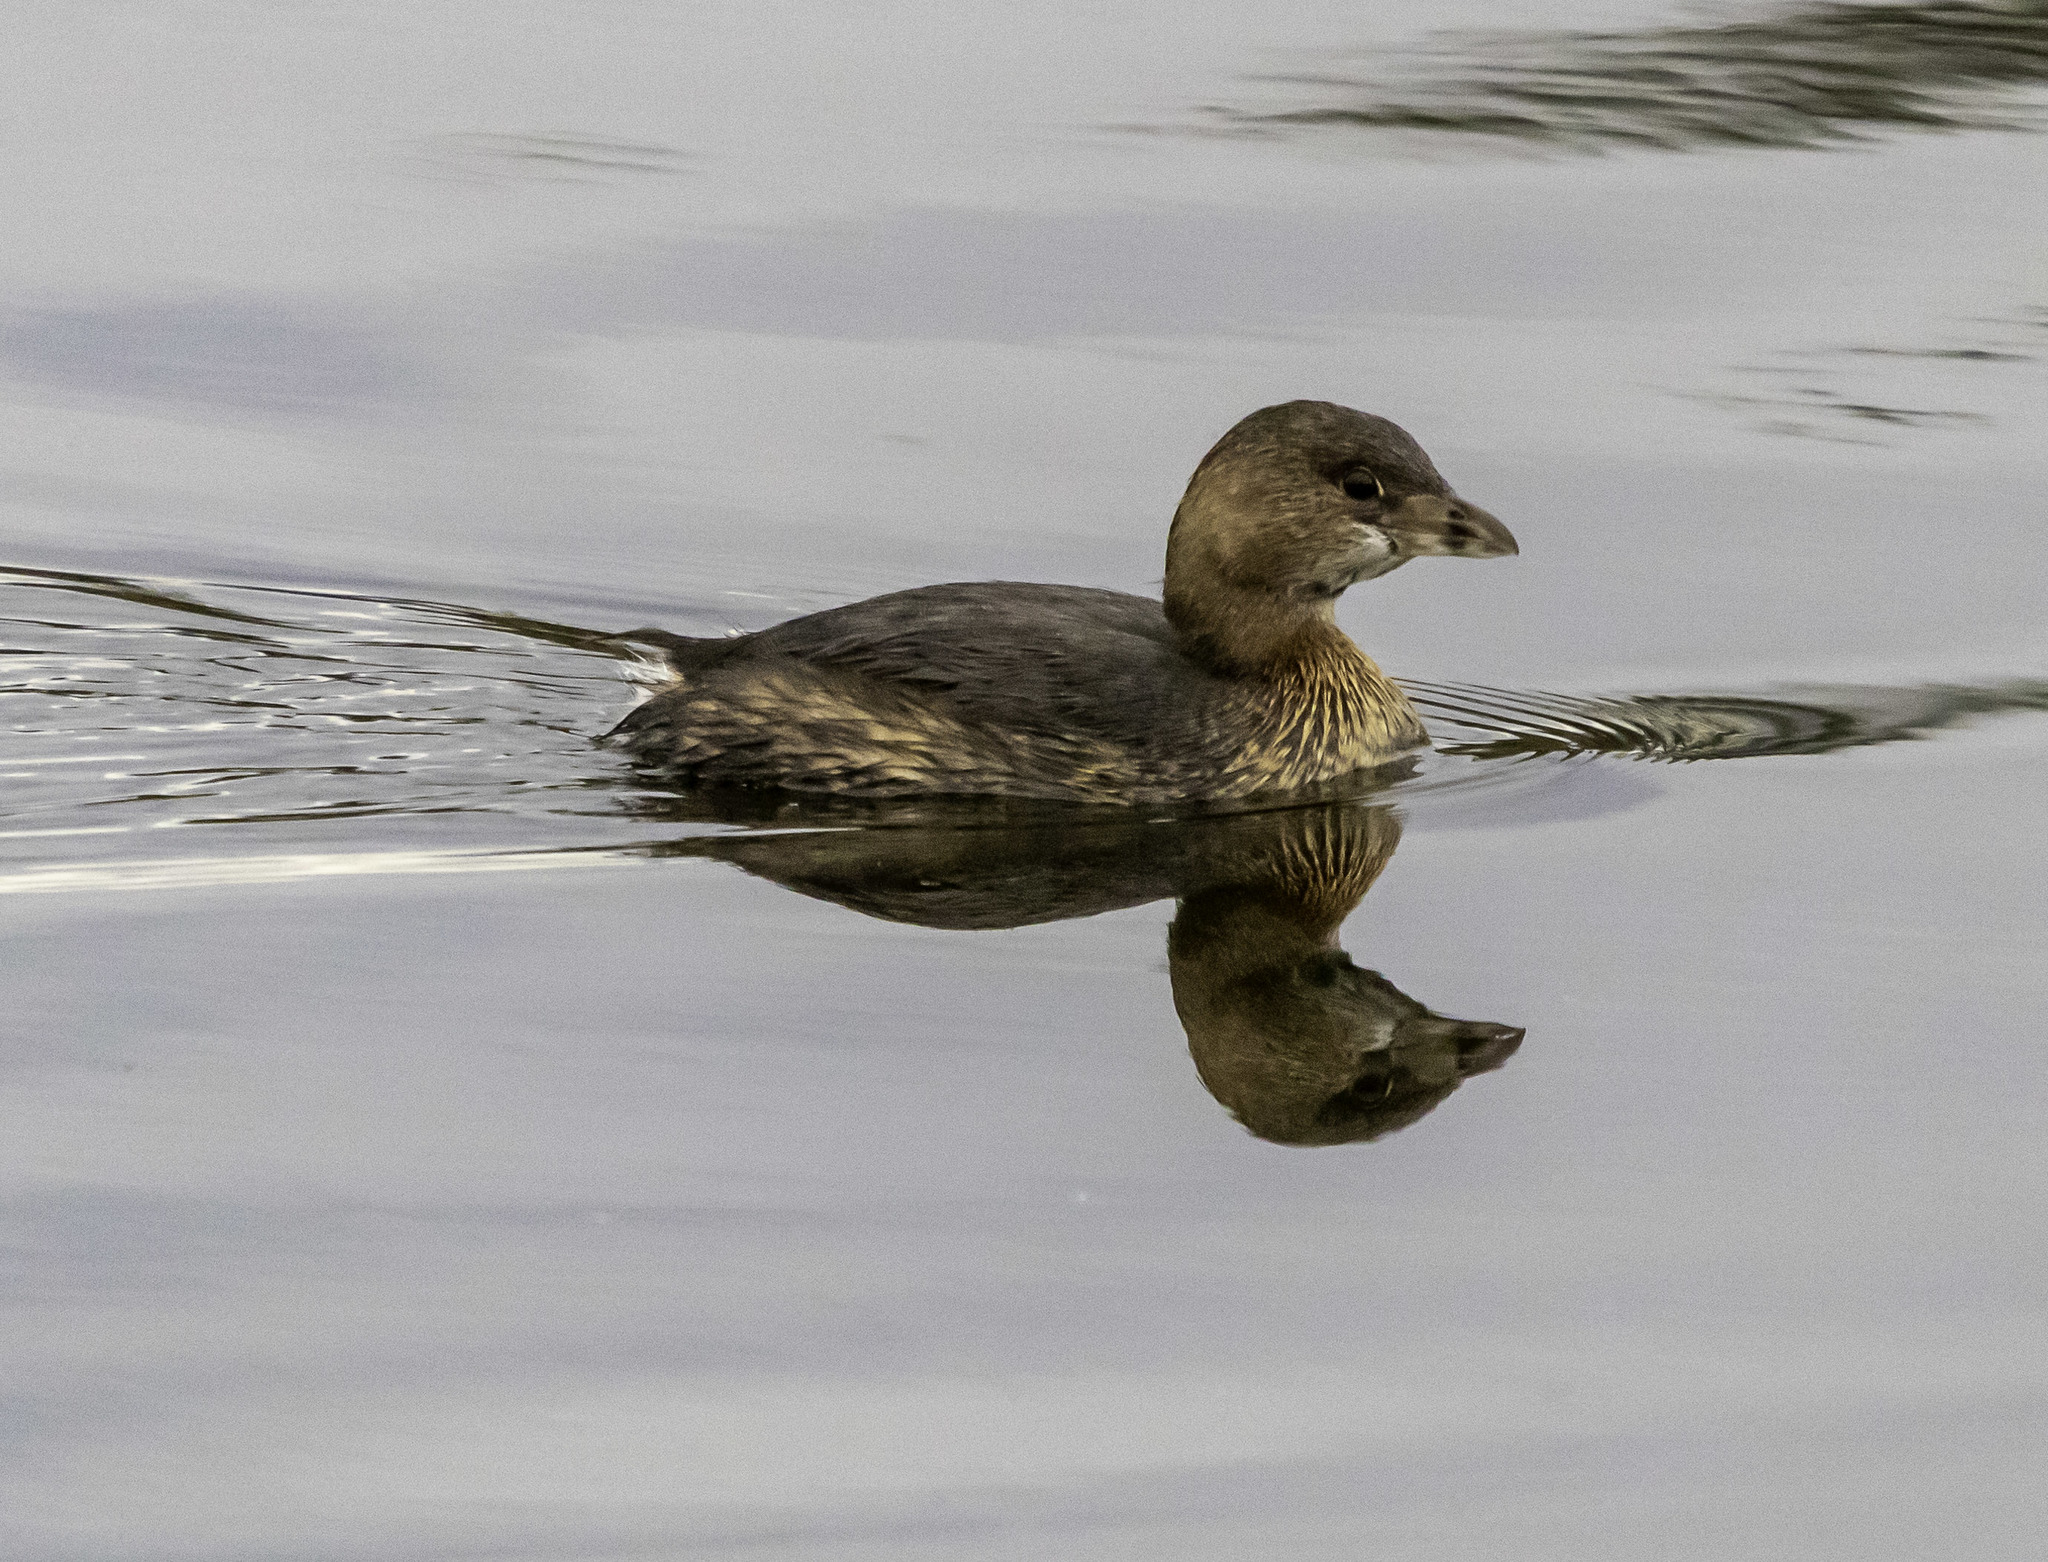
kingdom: Animalia
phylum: Chordata
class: Aves
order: Podicipediformes
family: Podicipedidae
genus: Podilymbus
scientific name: Podilymbus podiceps
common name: Pied-billed grebe
